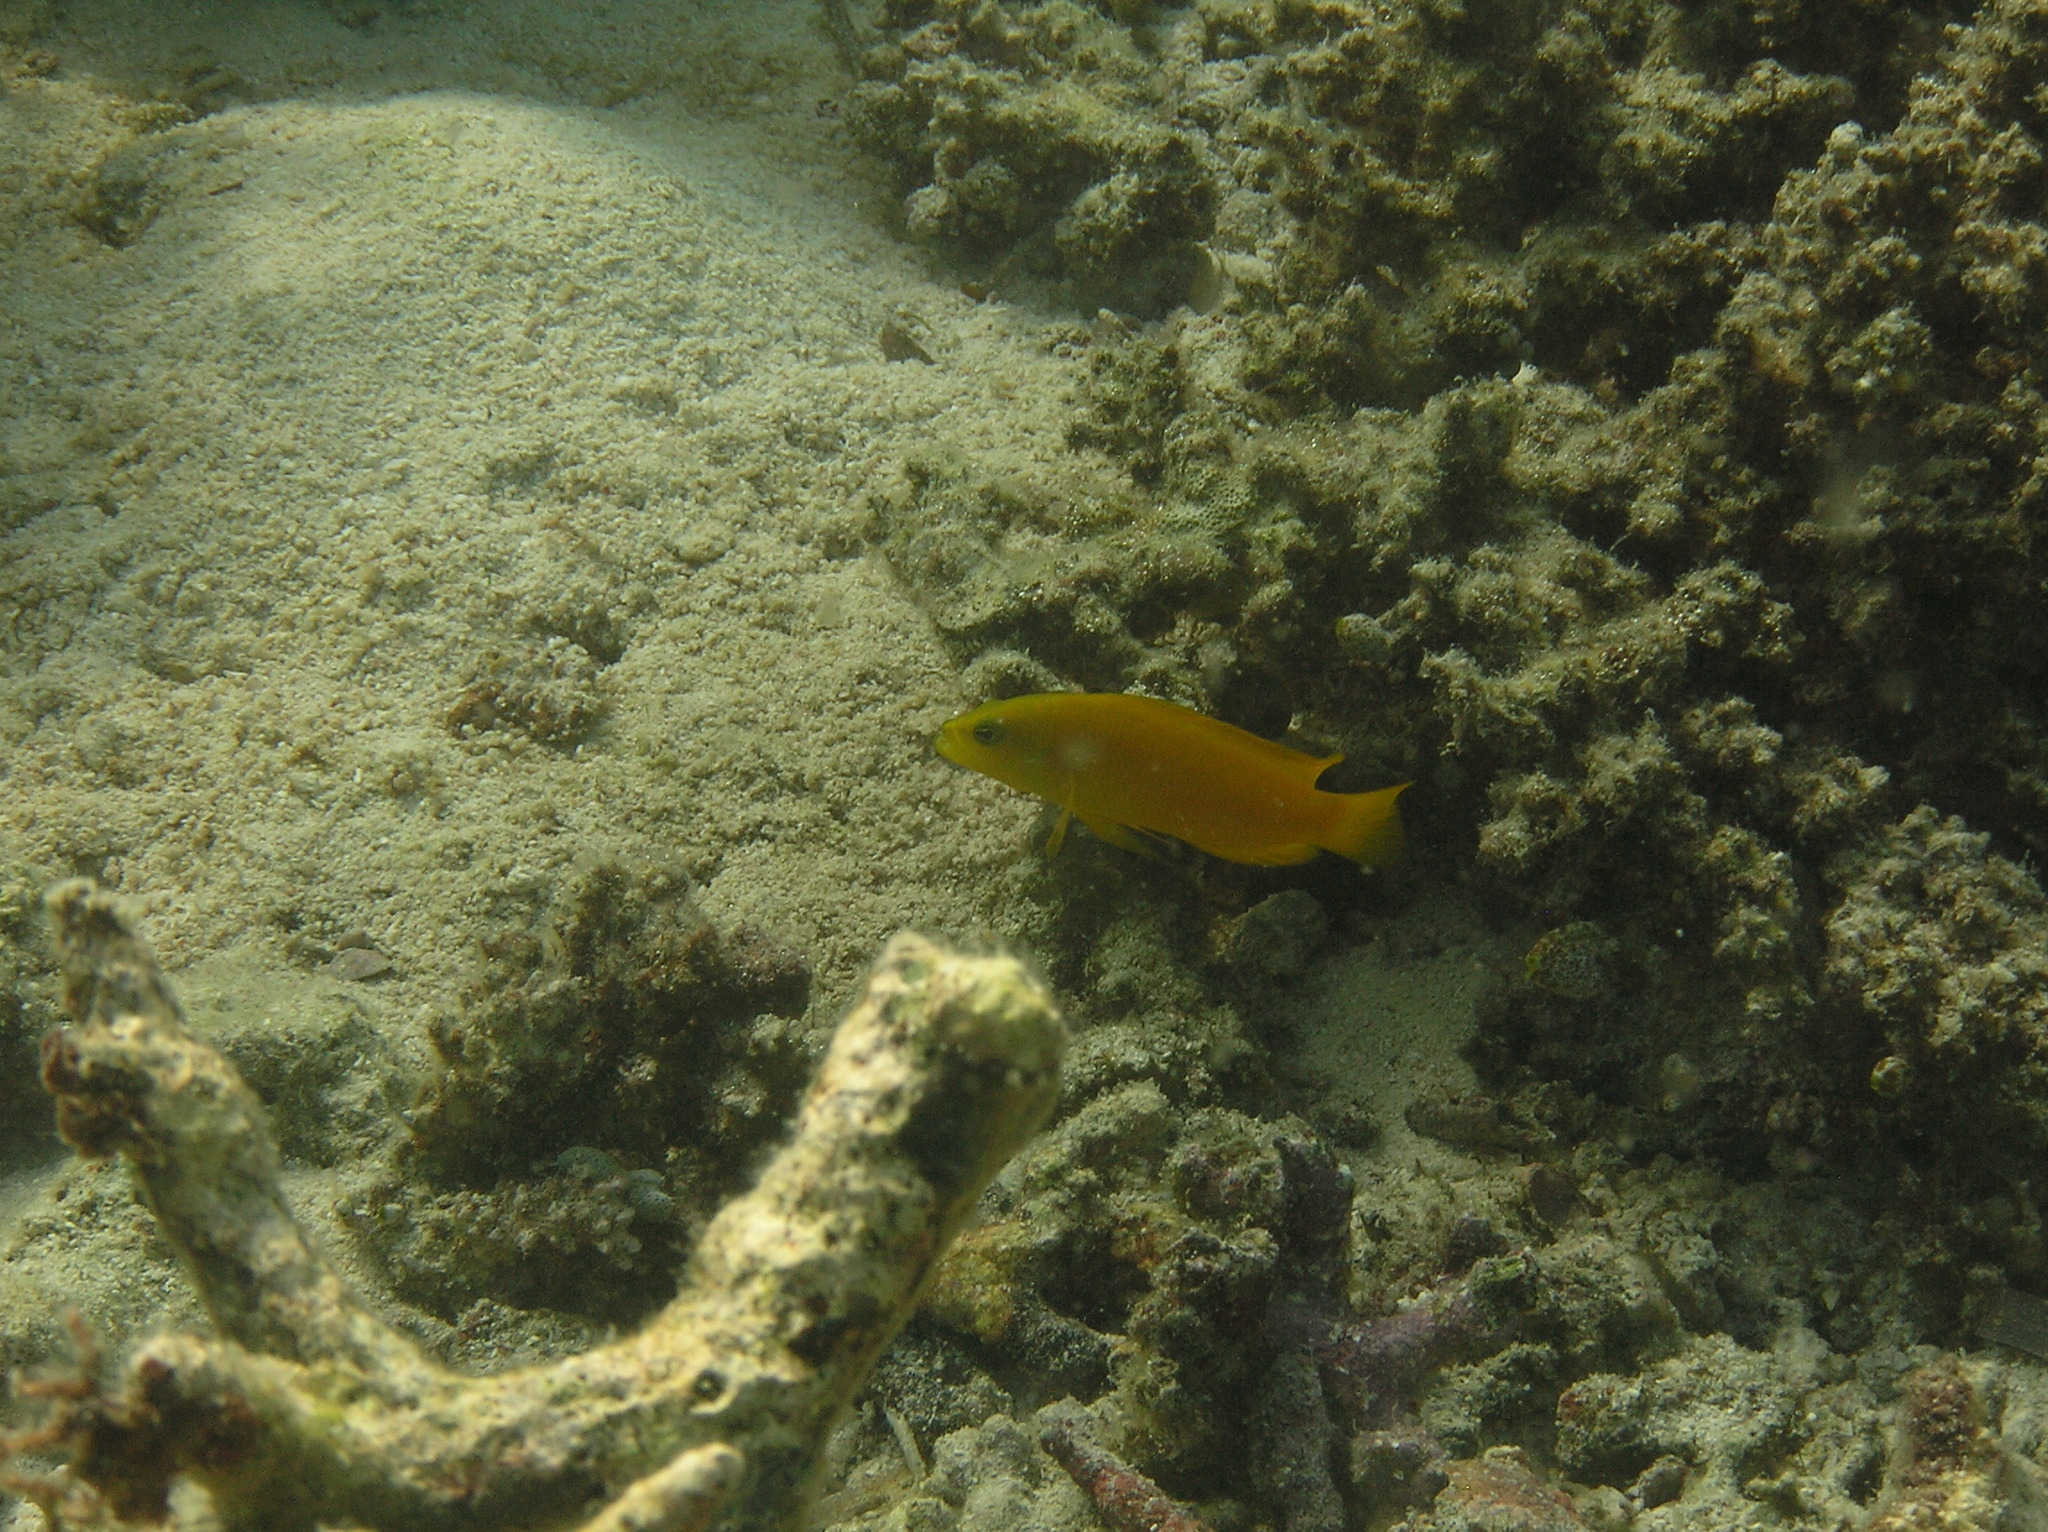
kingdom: Animalia
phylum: Chordata
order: Perciformes
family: Pseudochromidae
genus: Pseudochromis
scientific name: Pseudochromis fuscus
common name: Brown dottyback
